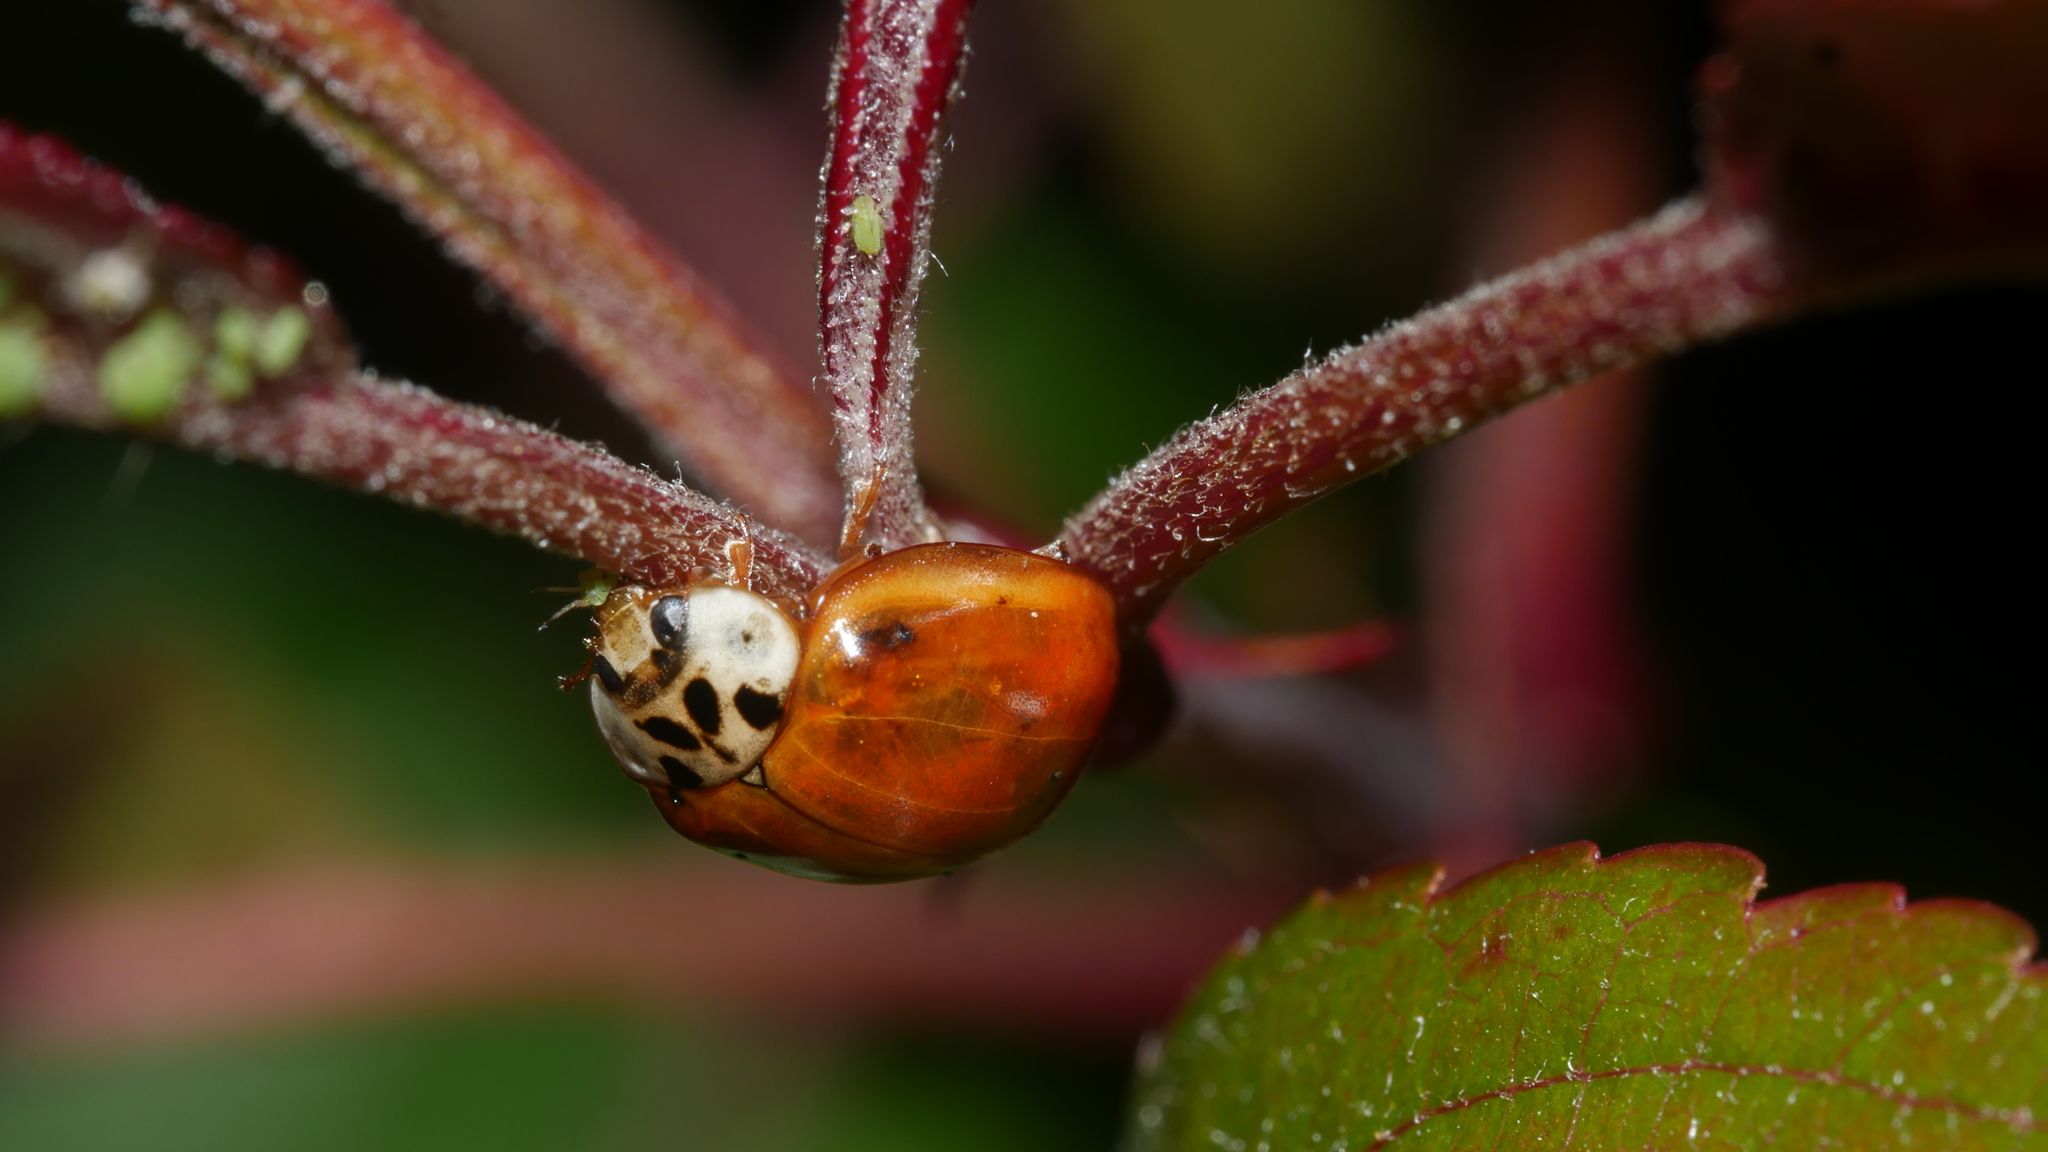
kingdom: Animalia
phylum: Arthropoda
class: Insecta
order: Coleoptera
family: Coccinellidae
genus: Harmonia
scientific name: Harmonia axyridis
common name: Harlequin ladybird
